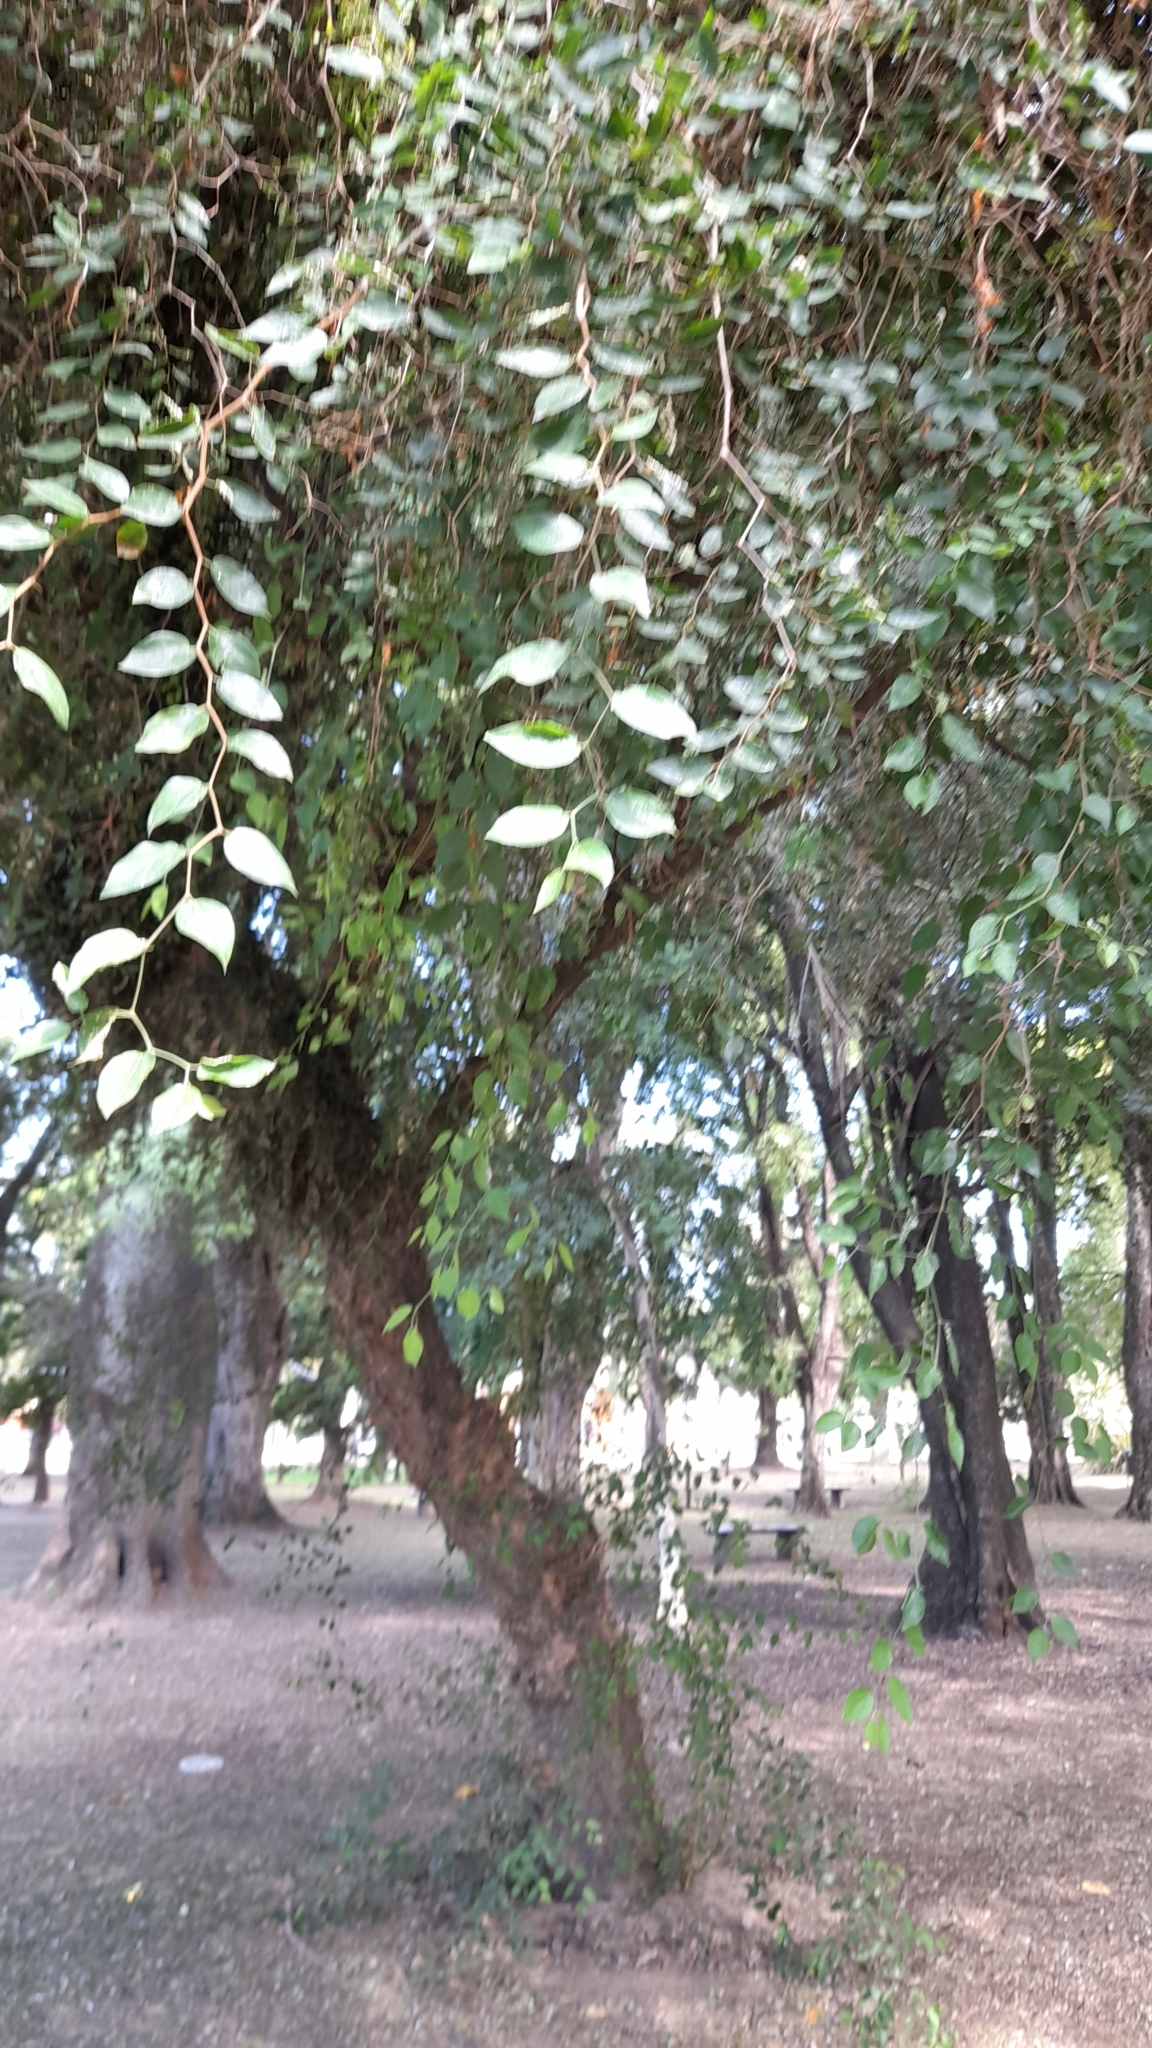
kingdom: Plantae
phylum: Tracheophyta
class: Magnoliopsida
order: Rosales
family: Cannabaceae
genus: Celtis
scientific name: Celtis tala
